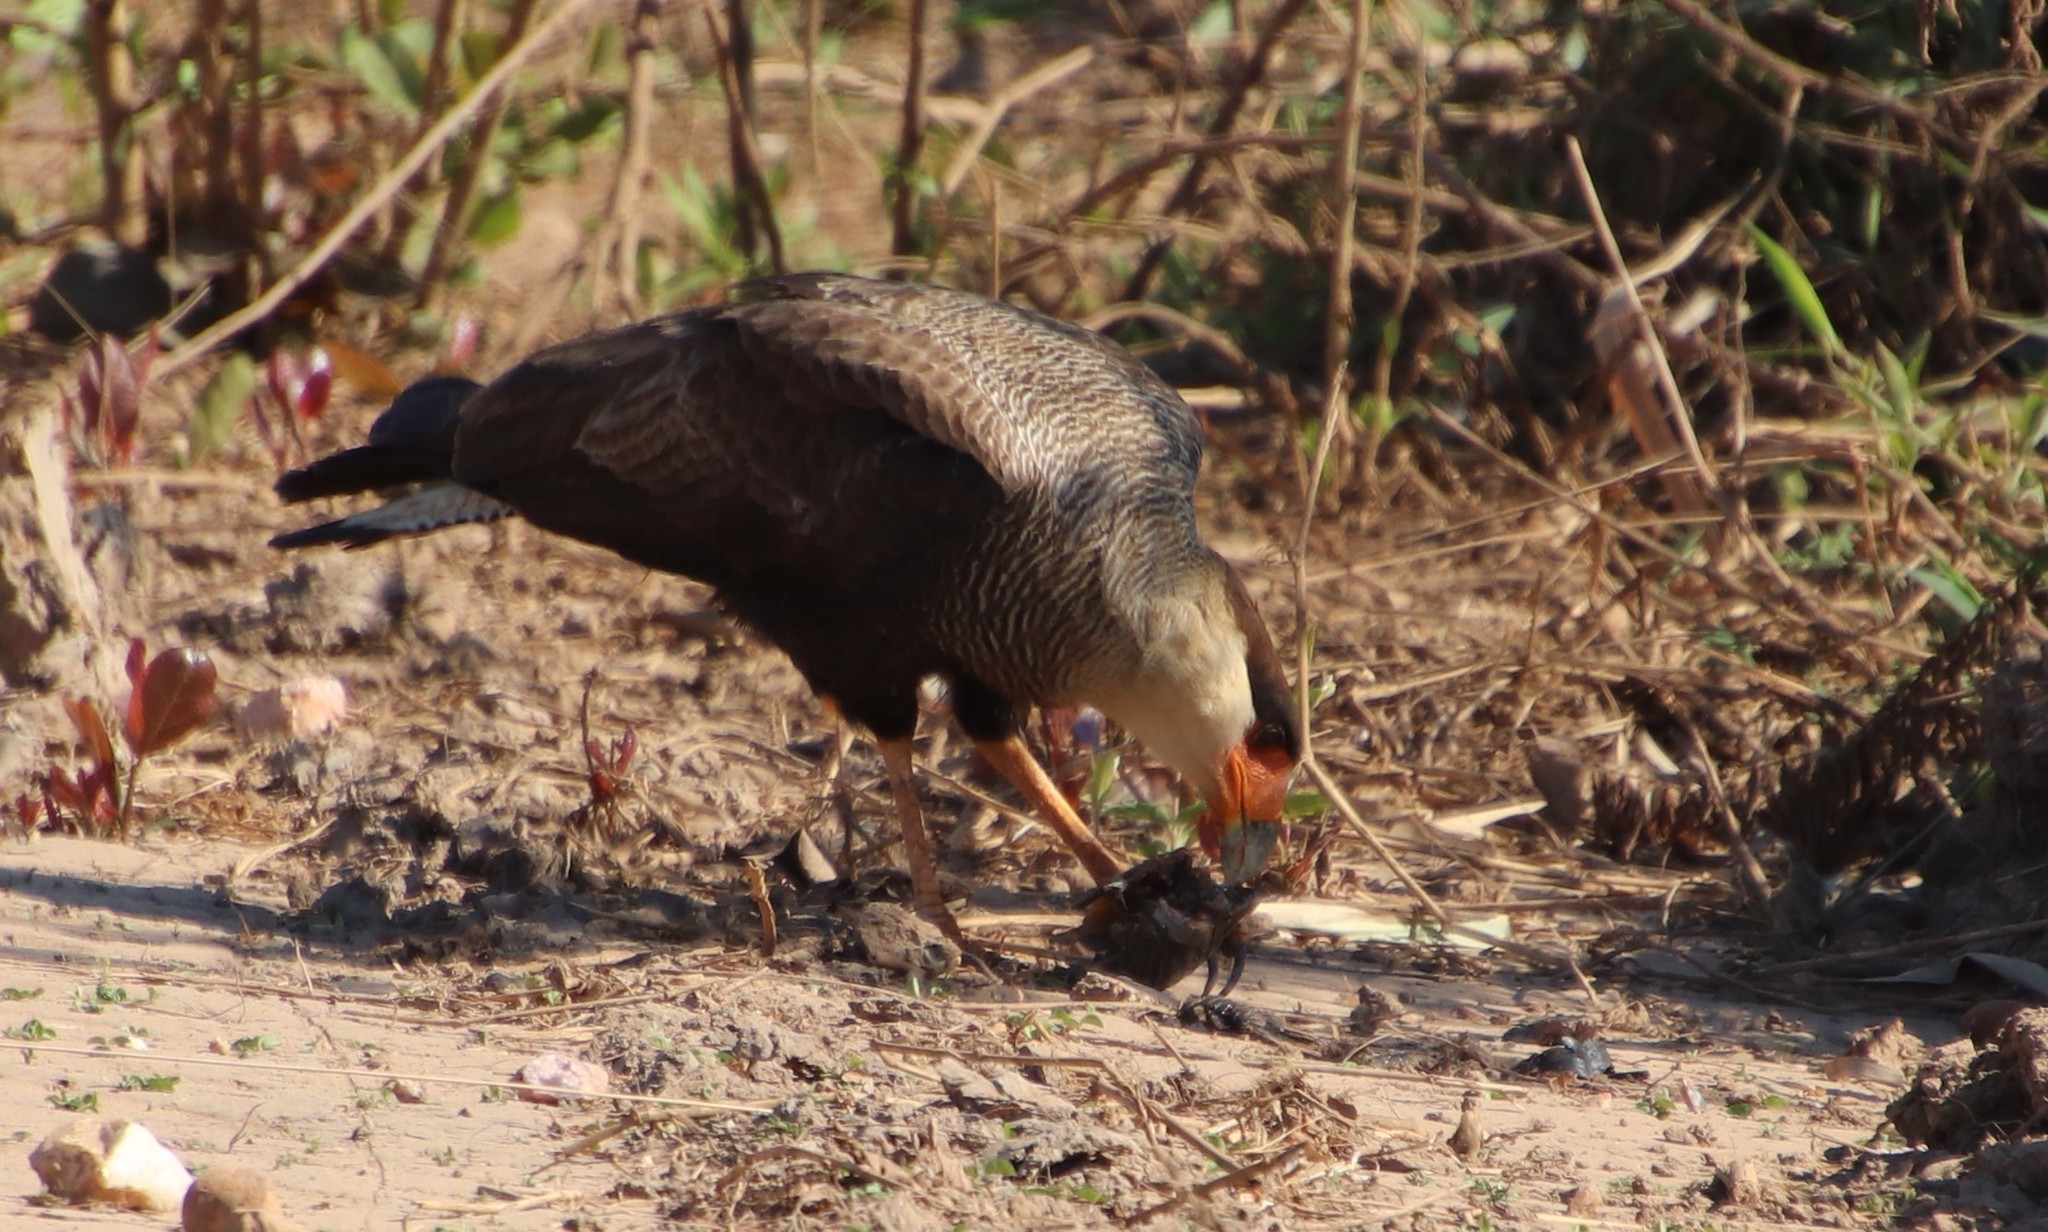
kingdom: Animalia
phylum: Chordata
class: Aves
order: Falconiformes
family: Falconidae
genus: Caracara
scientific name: Caracara plancus
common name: Southern caracara
